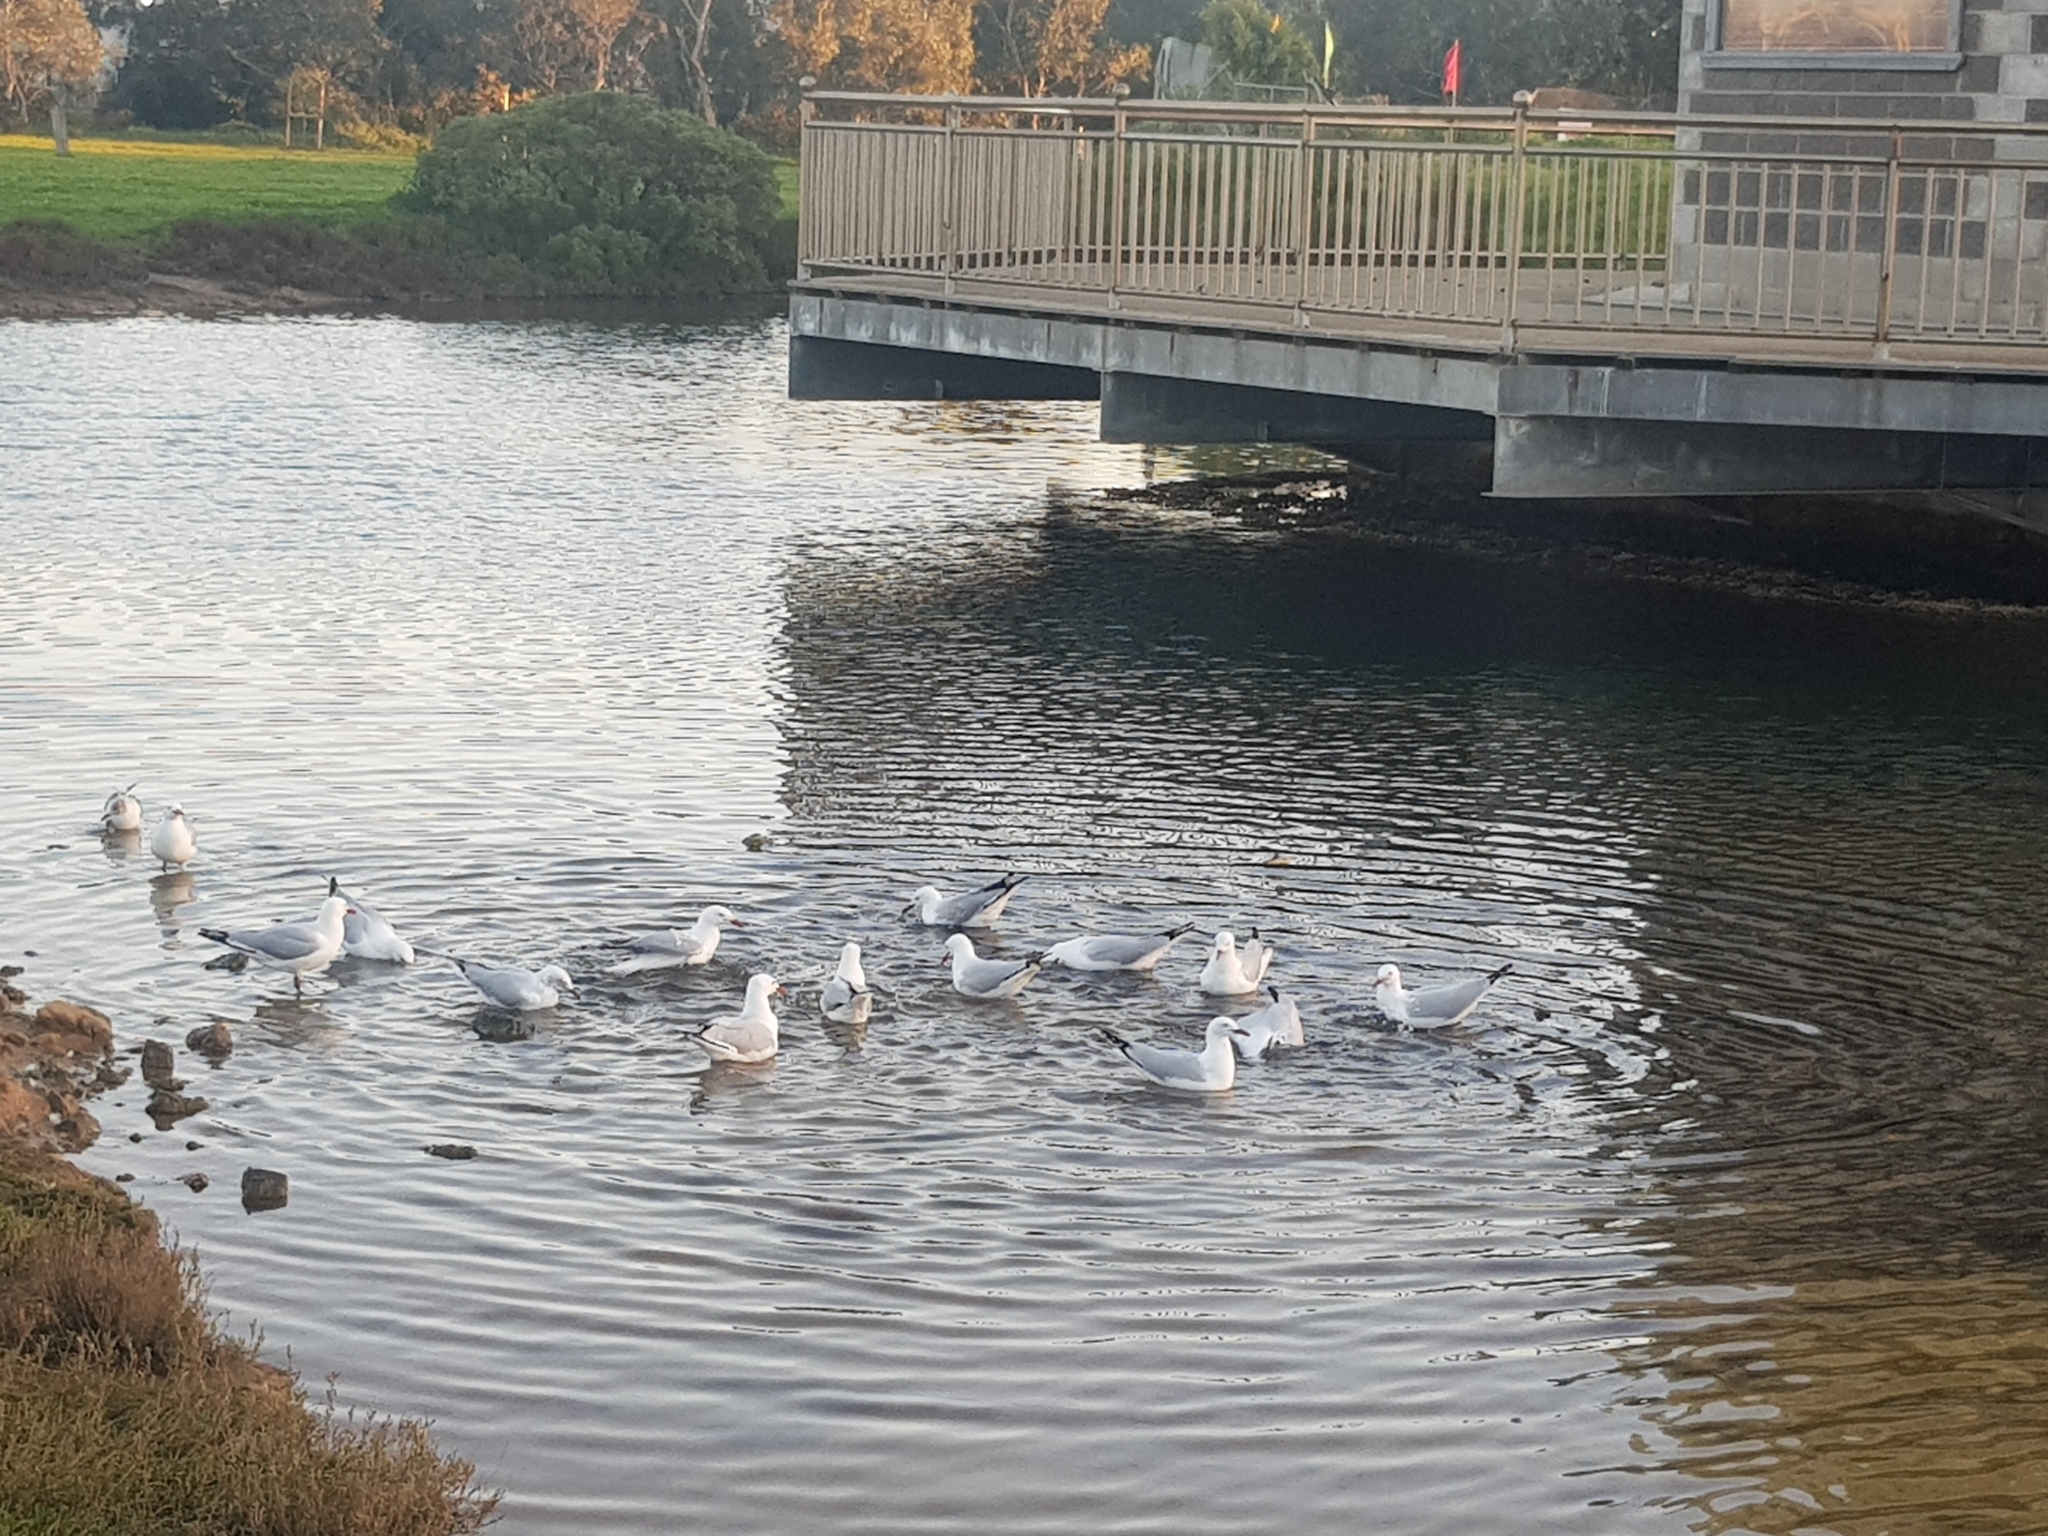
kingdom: Animalia
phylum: Chordata
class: Aves
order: Charadriiformes
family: Laridae
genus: Chroicocephalus
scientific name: Chroicocephalus novaehollandiae
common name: Silver gull
